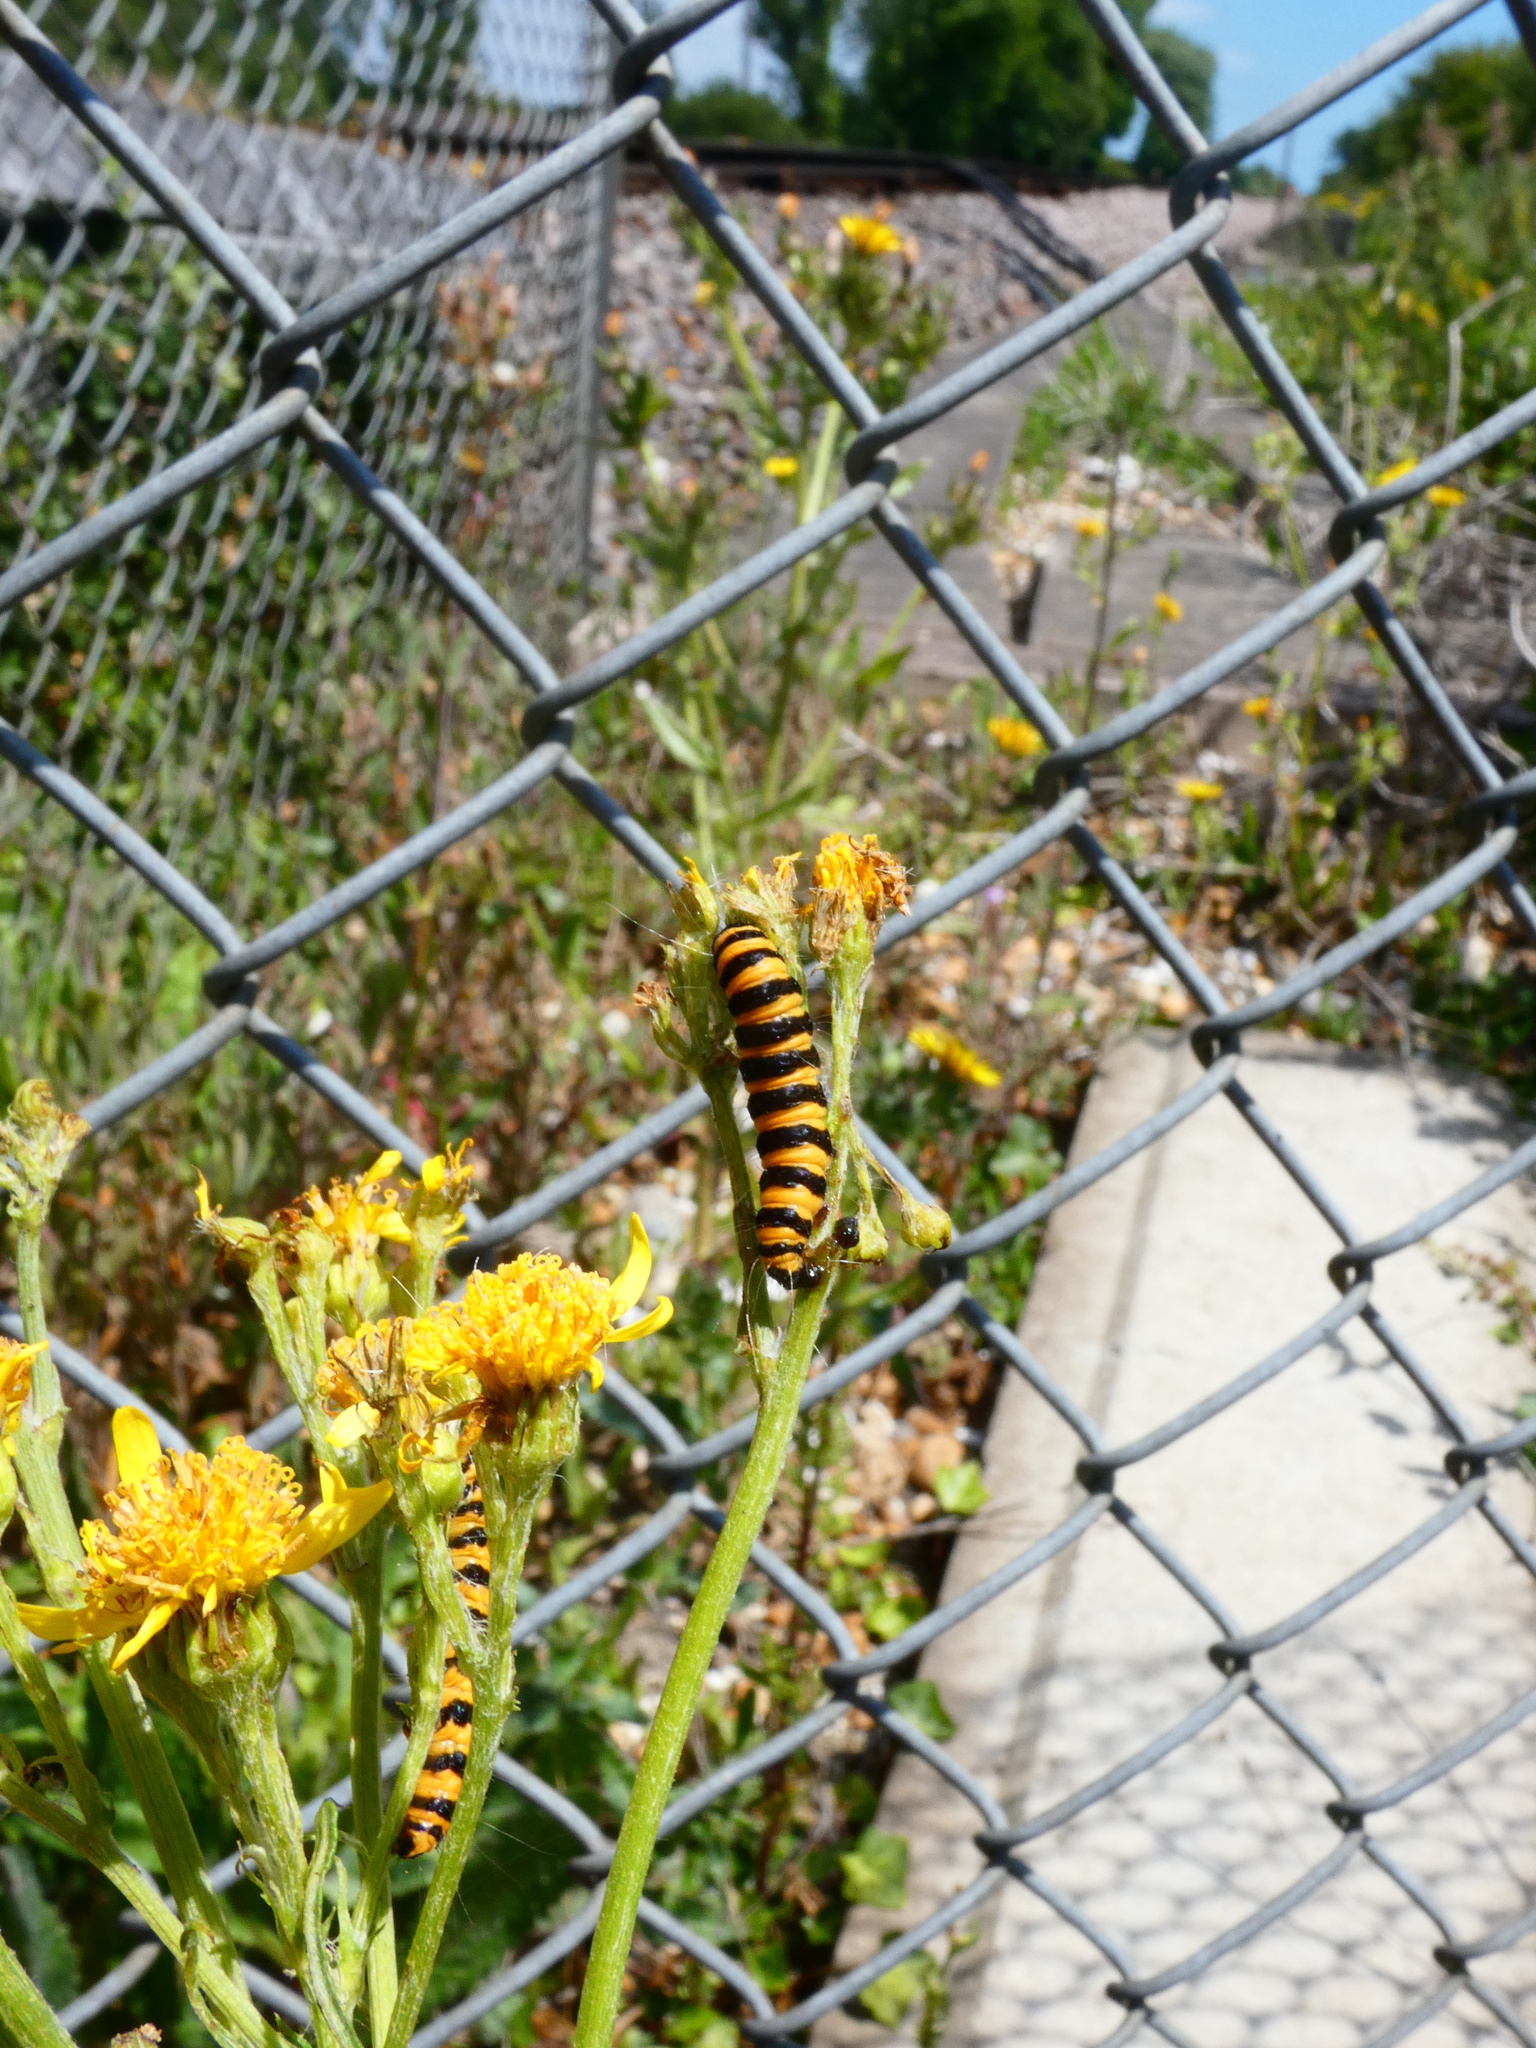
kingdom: Animalia
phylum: Arthropoda
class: Insecta
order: Lepidoptera
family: Erebidae
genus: Tyria
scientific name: Tyria jacobaeae
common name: Cinnabar
